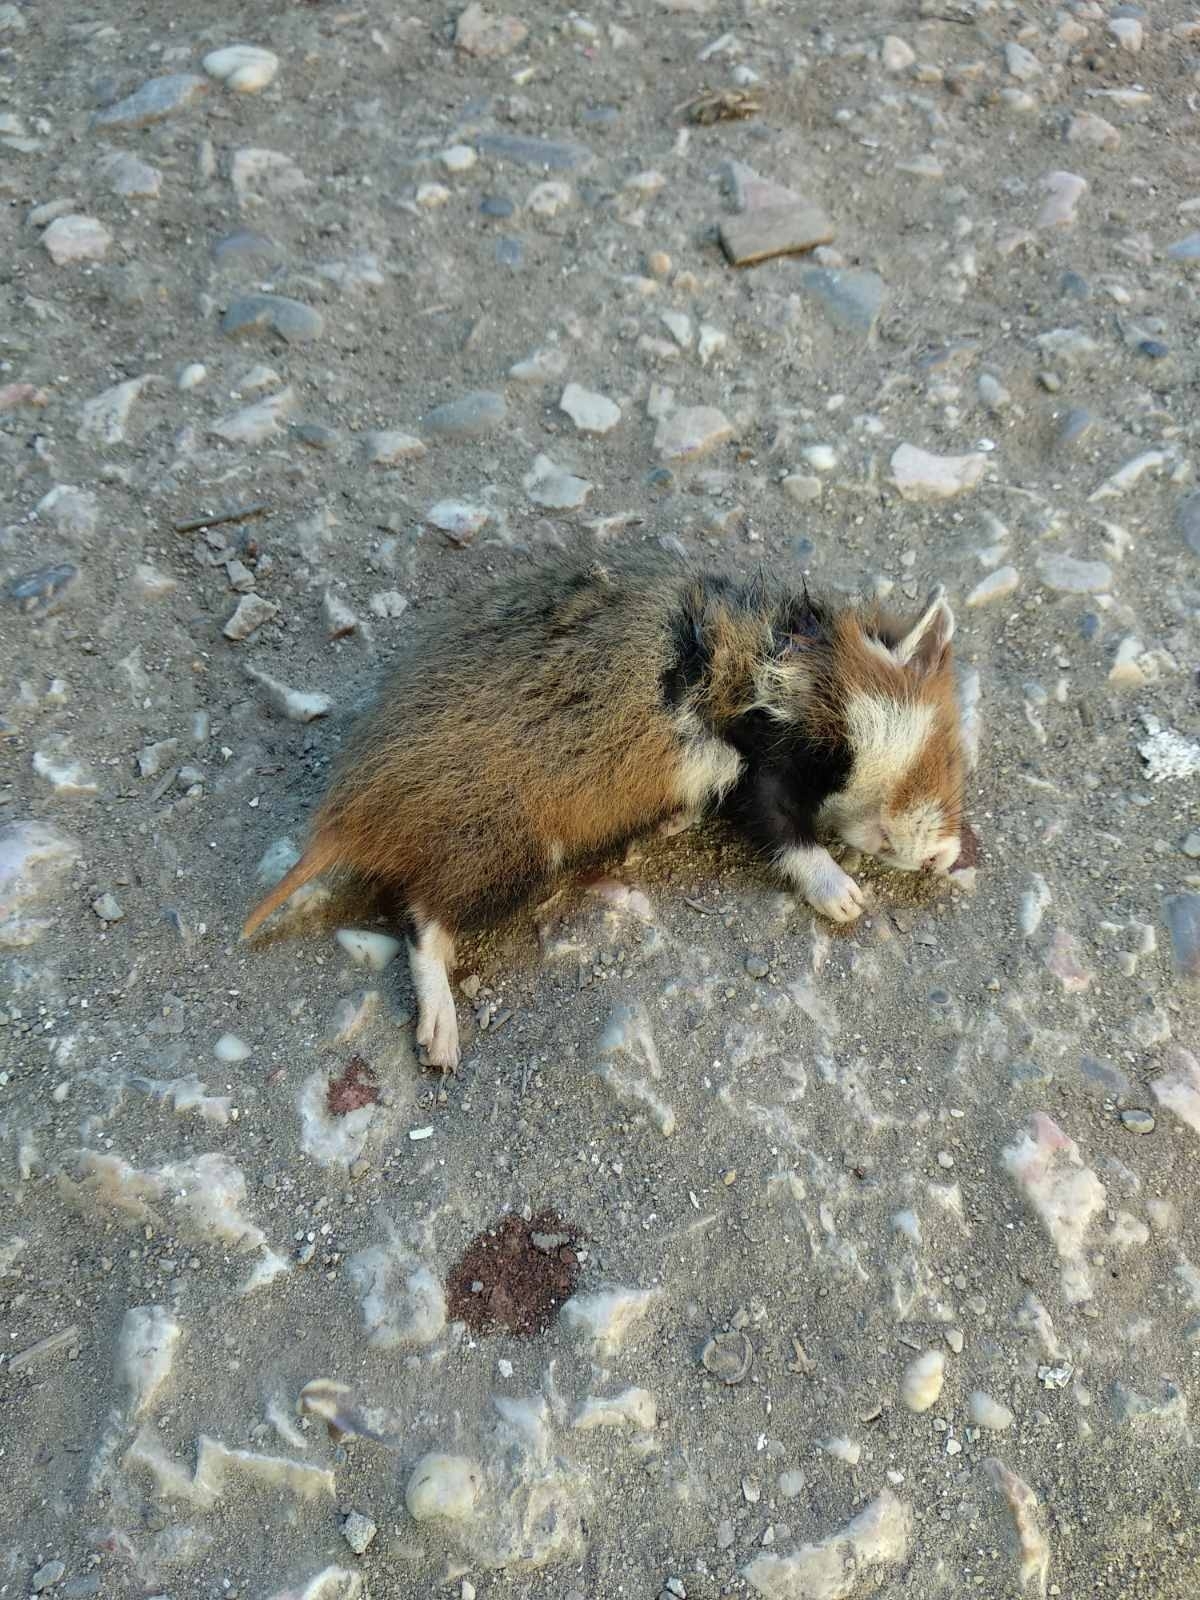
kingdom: Animalia
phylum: Chordata
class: Mammalia
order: Rodentia
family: Cricetidae
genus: Cricetus
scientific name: Cricetus cricetus
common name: Common hamster
